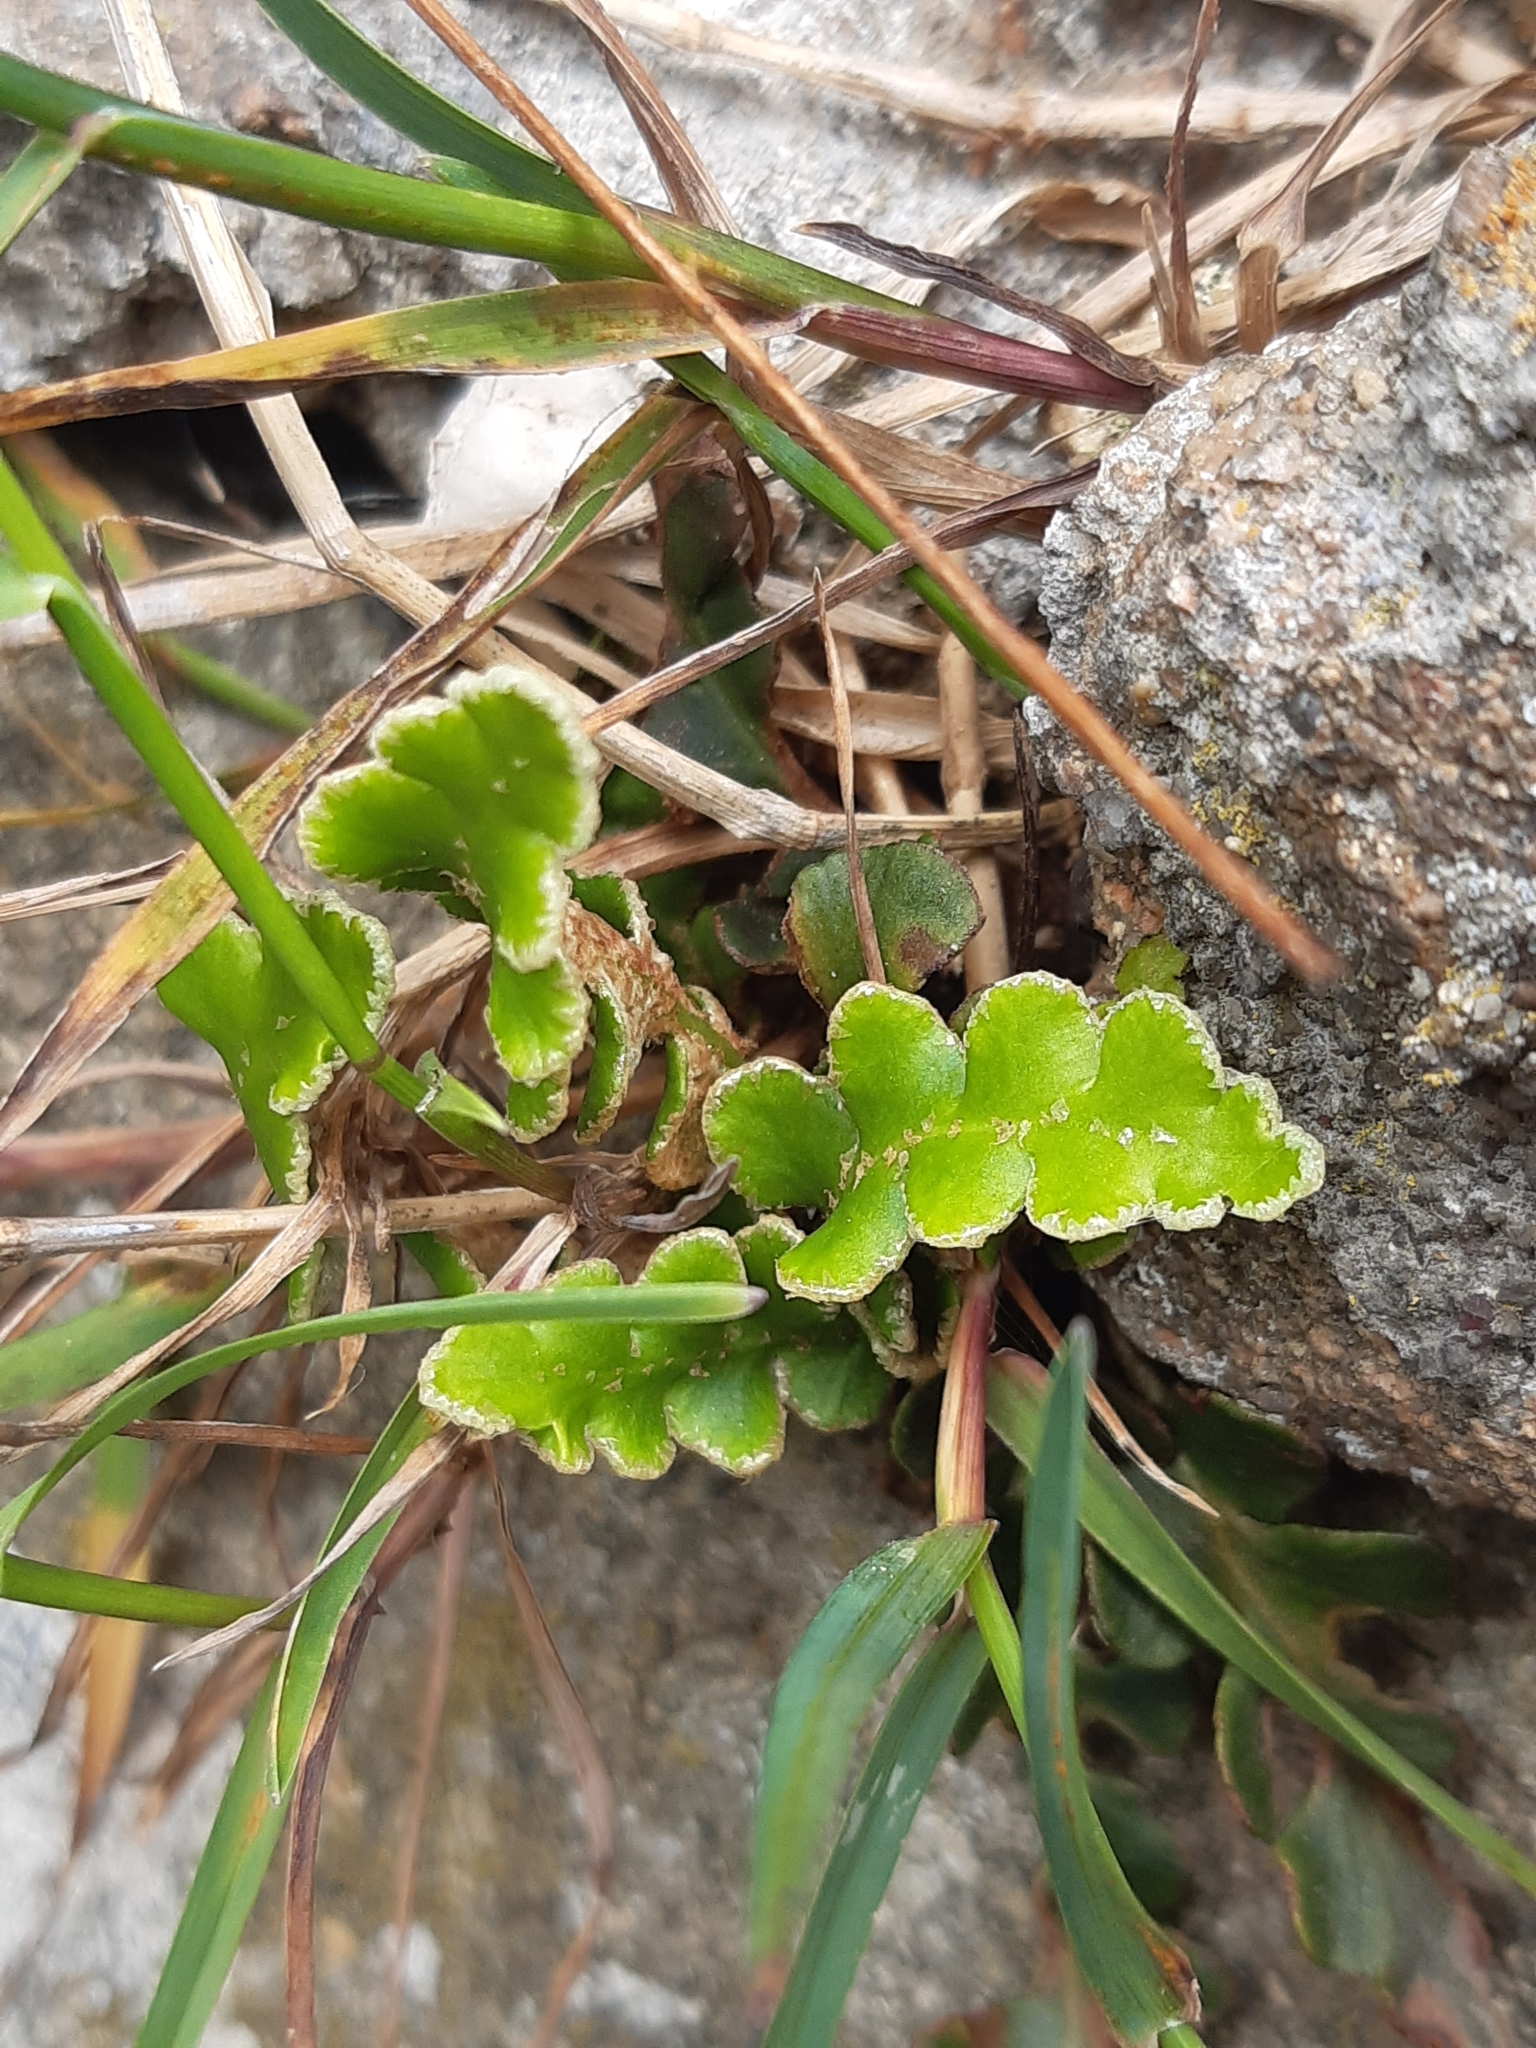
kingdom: Plantae
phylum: Tracheophyta
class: Polypodiopsida
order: Polypodiales
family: Aspleniaceae
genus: Asplenium
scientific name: Asplenium ceterach
